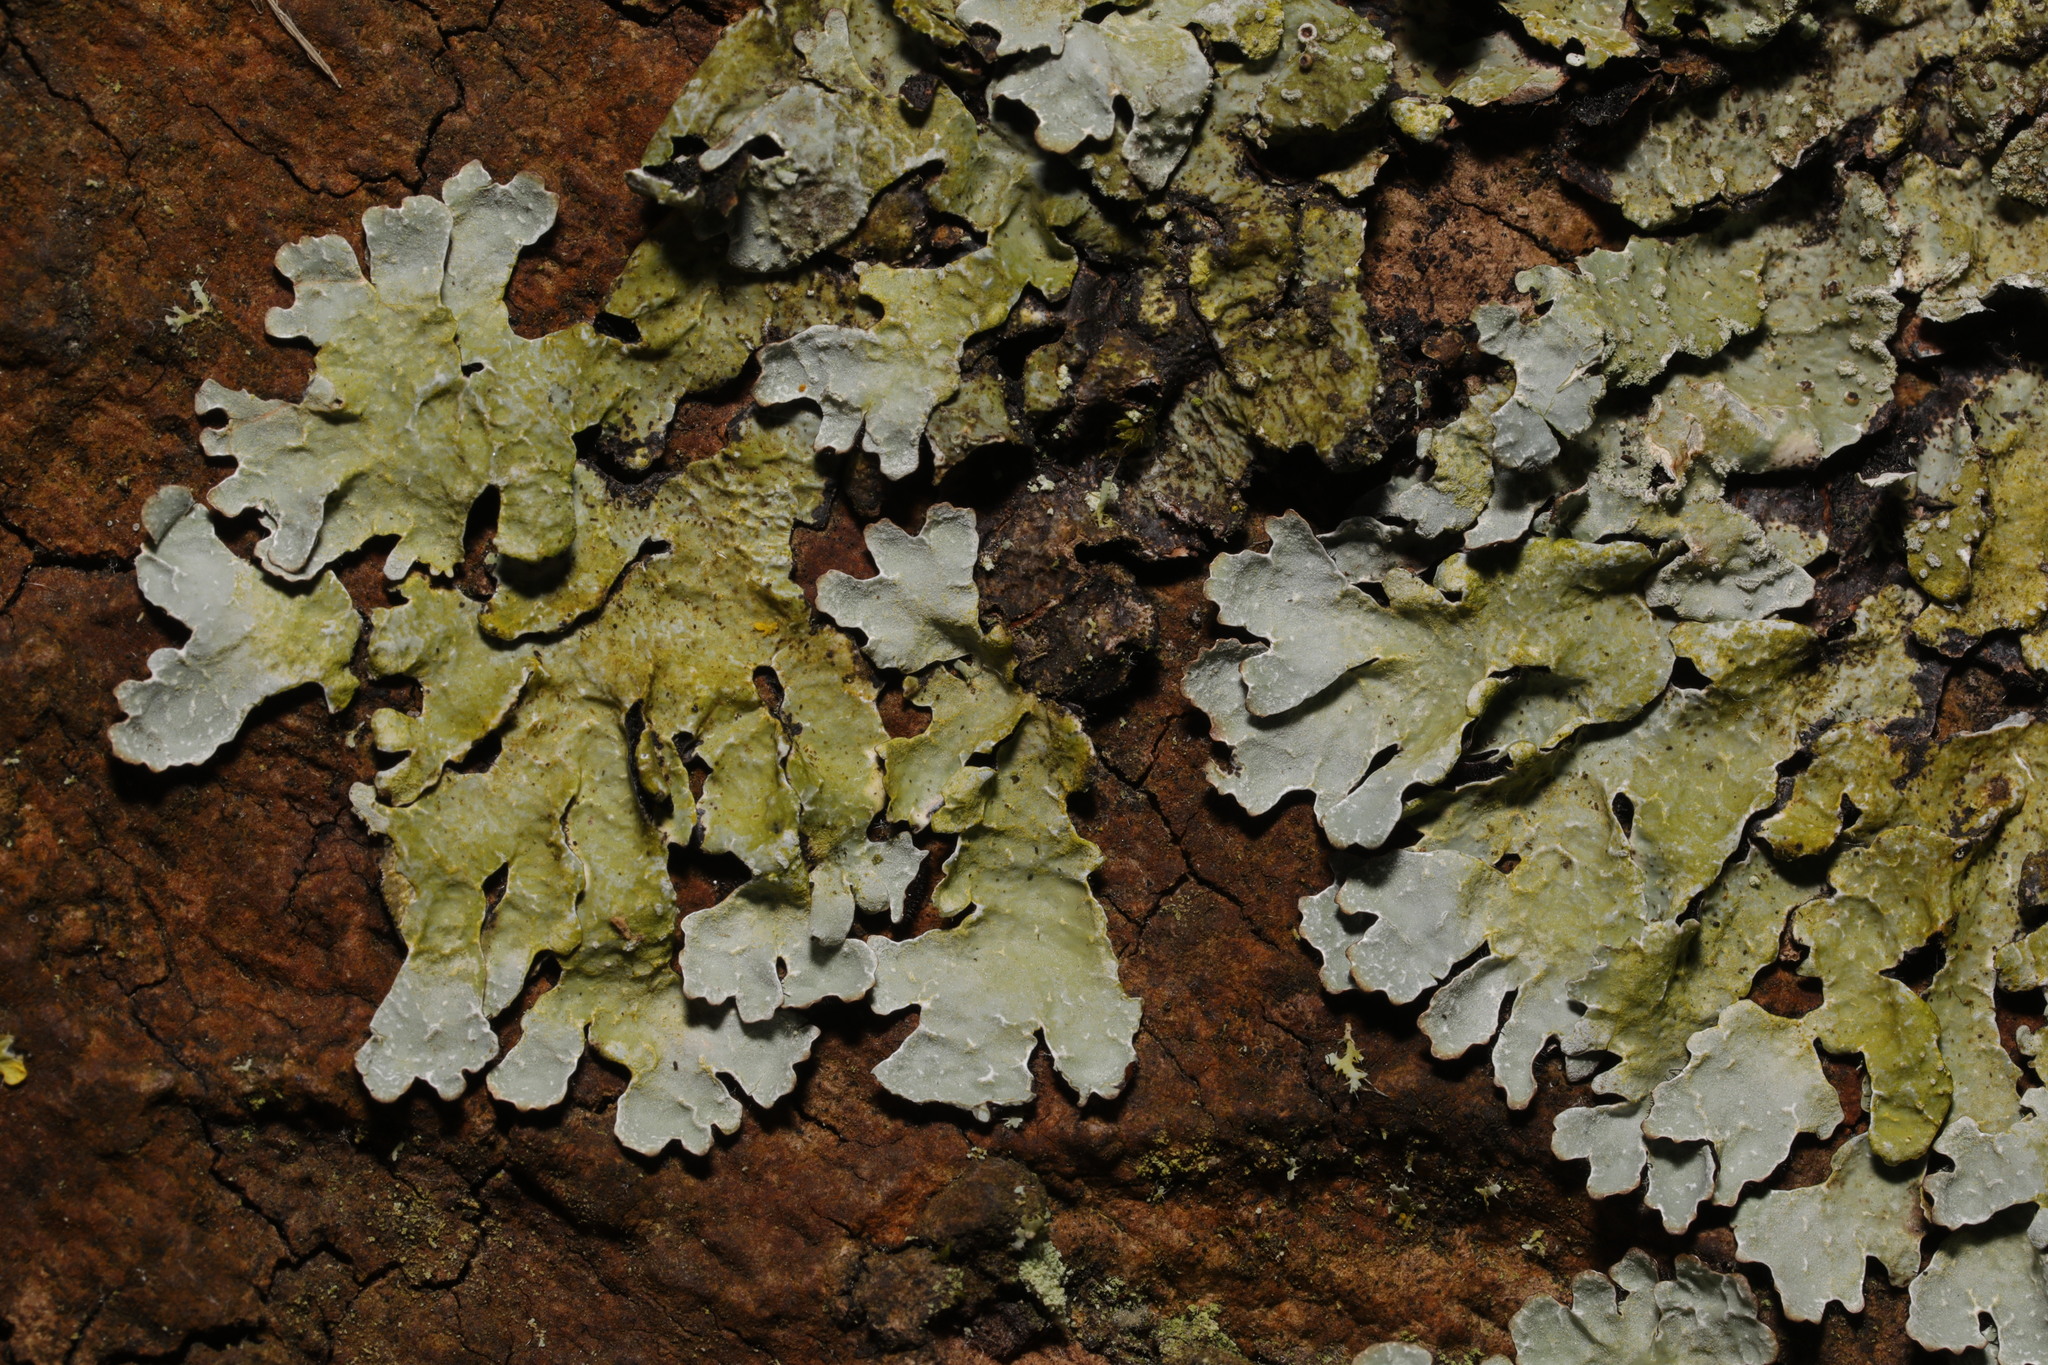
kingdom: Fungi
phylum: Ascomycota
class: Lecanoromycetes
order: Lecanorales
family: Parmeliaceae
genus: Parmelia
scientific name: Parmelia sulcata
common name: Netted shield lichen
